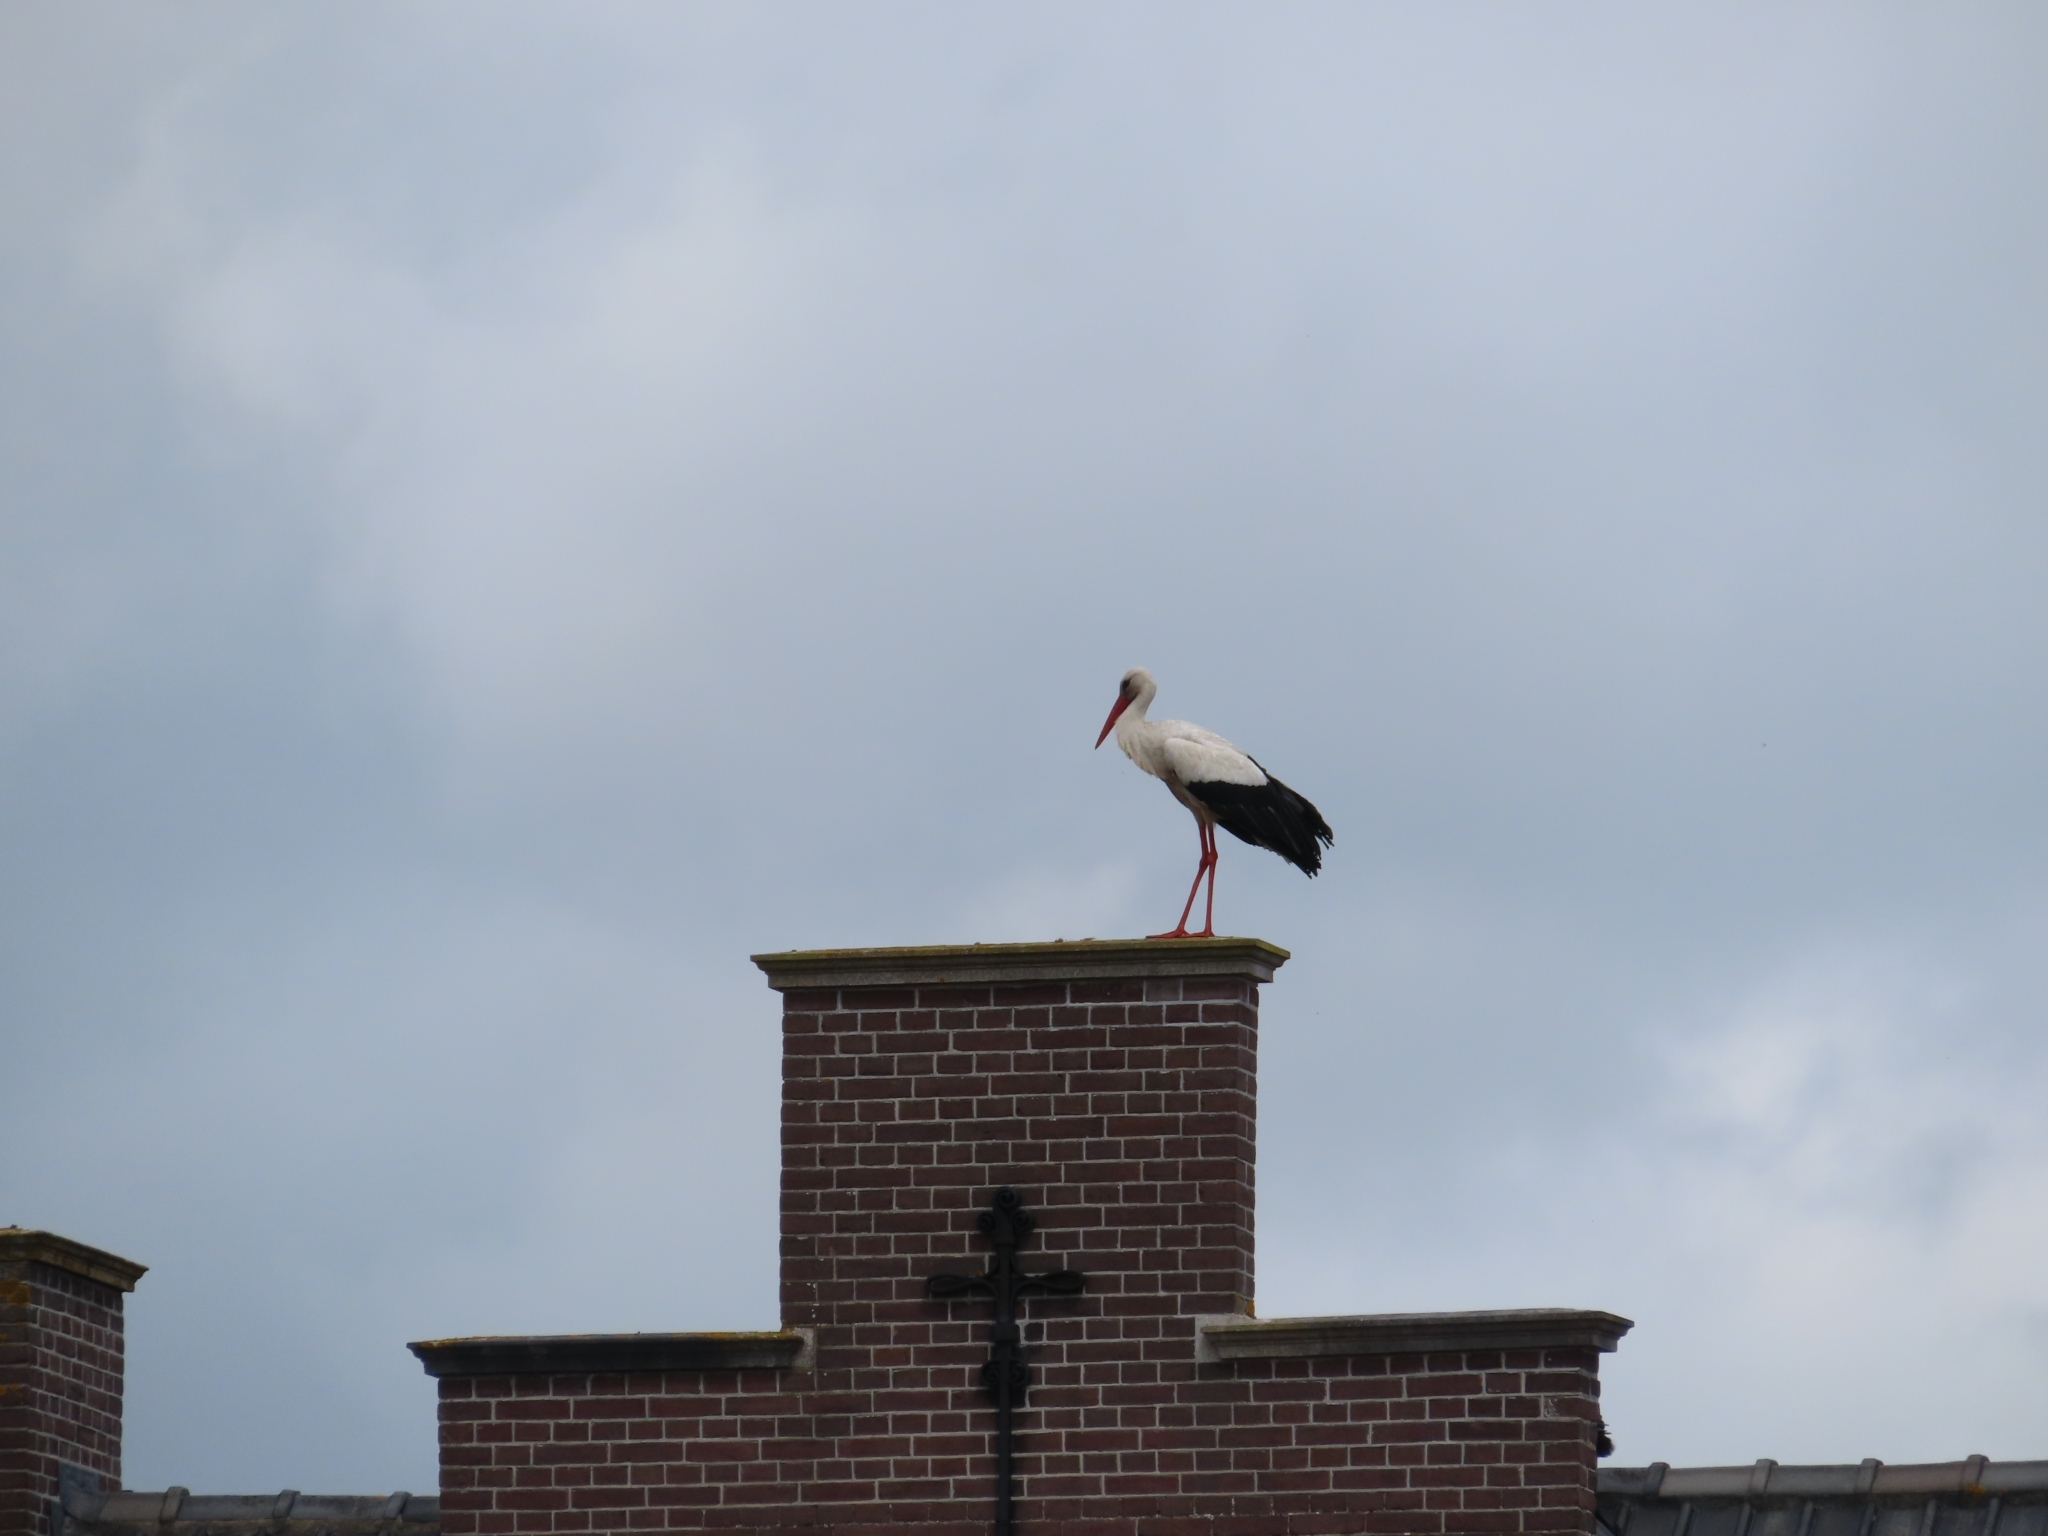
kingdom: Animalia
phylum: Chordata
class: Aves
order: Ciconiiformes
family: Ciconiidae
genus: Ciconia
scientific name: Ciconia ciconia
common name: White stork
